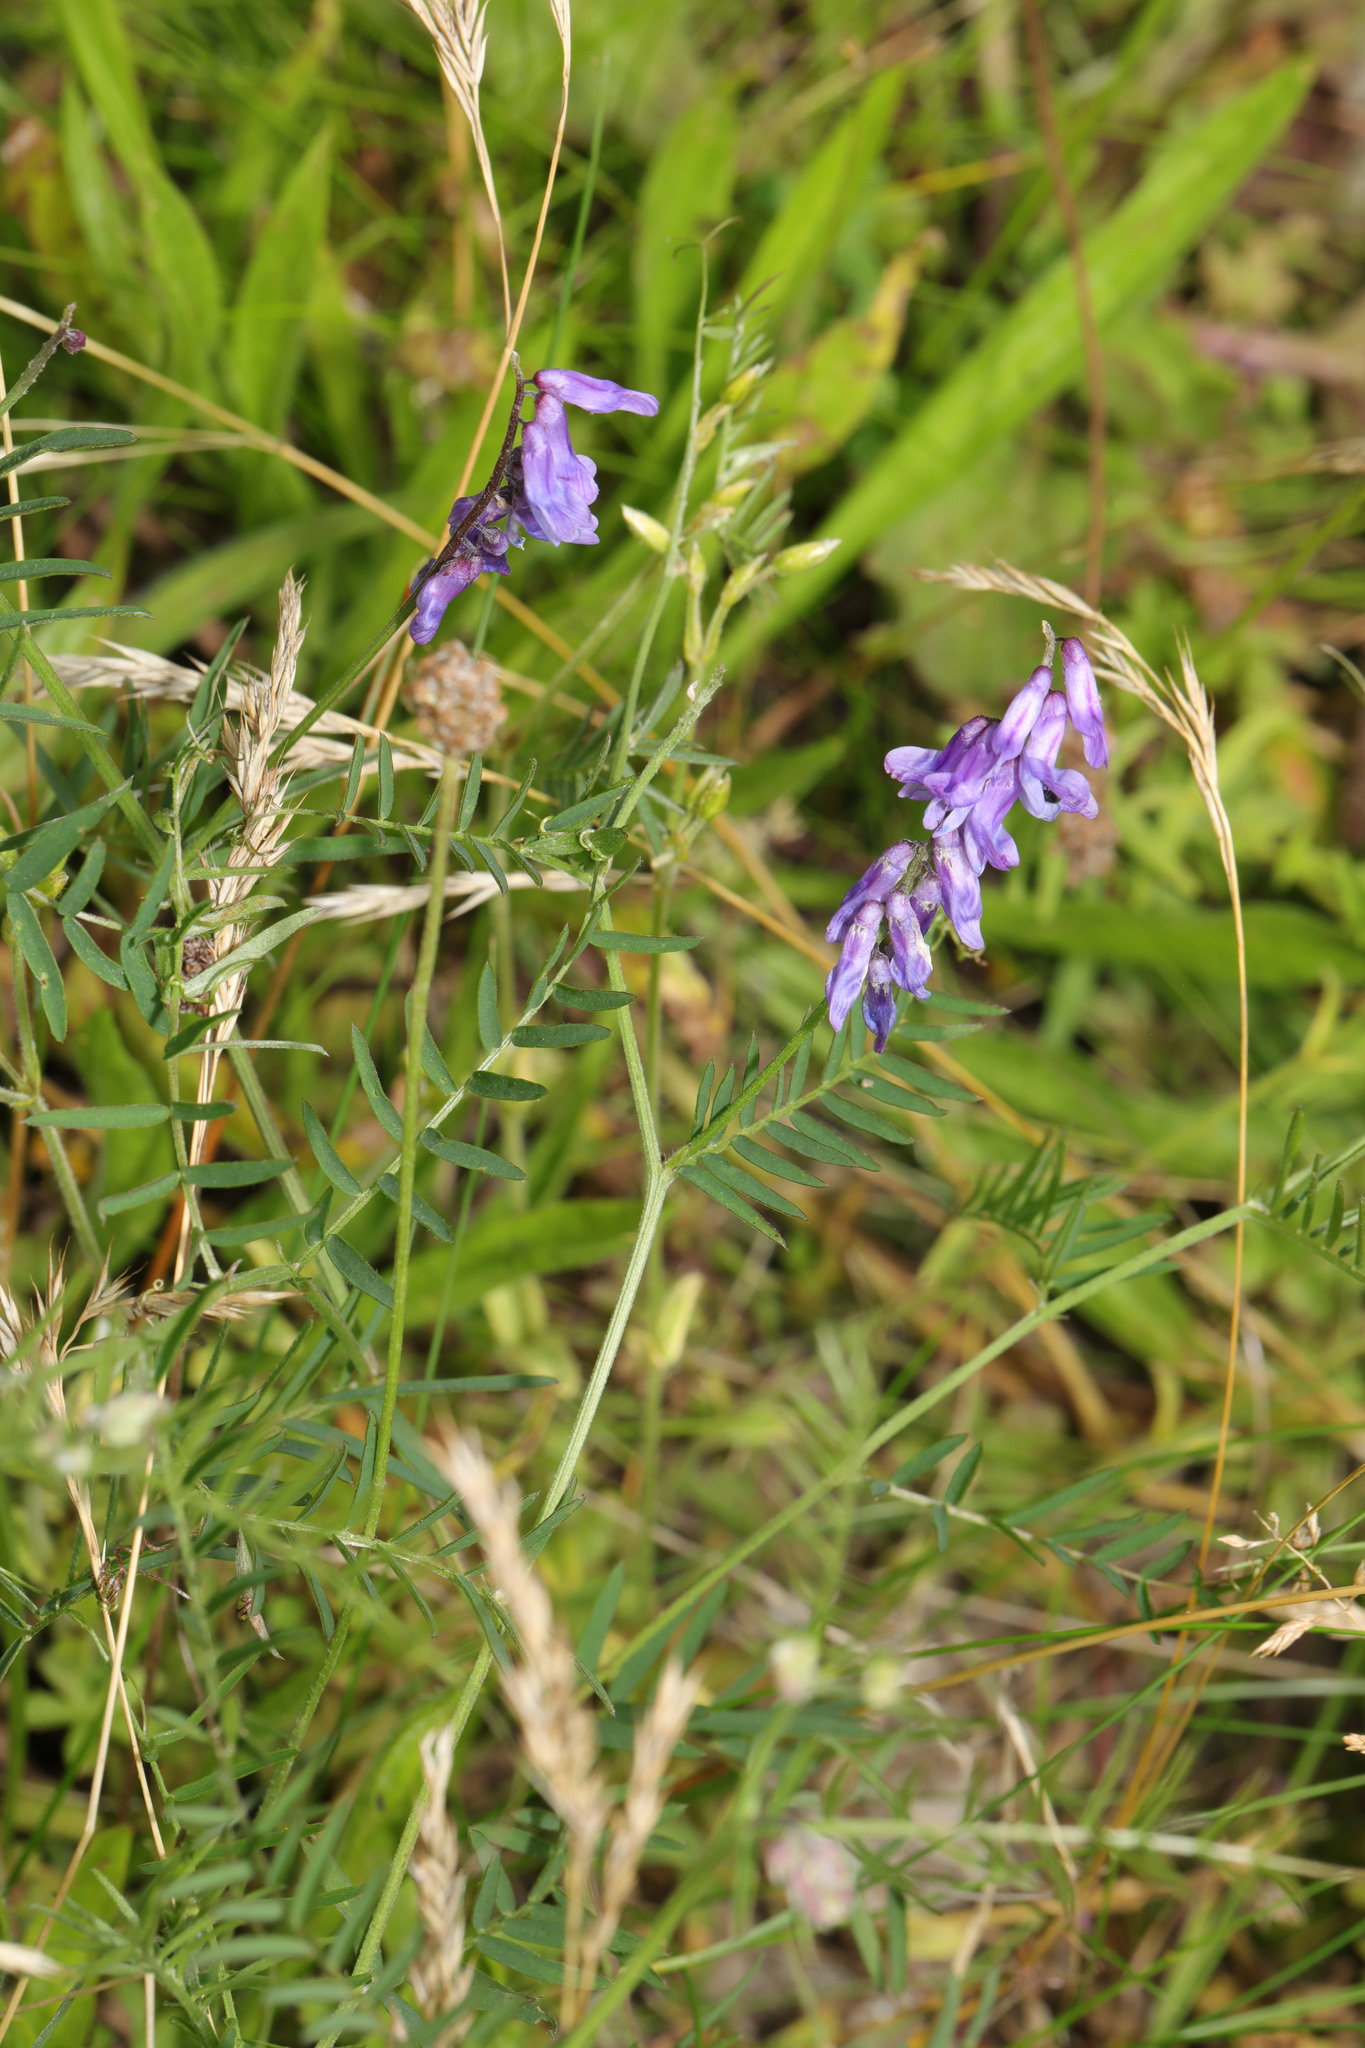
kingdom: Plantae
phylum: Tracheophyta
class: Magnoliopsida
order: Fabales
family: Fabaceae
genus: Vicia
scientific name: Vicia cracca
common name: Bird vetch
